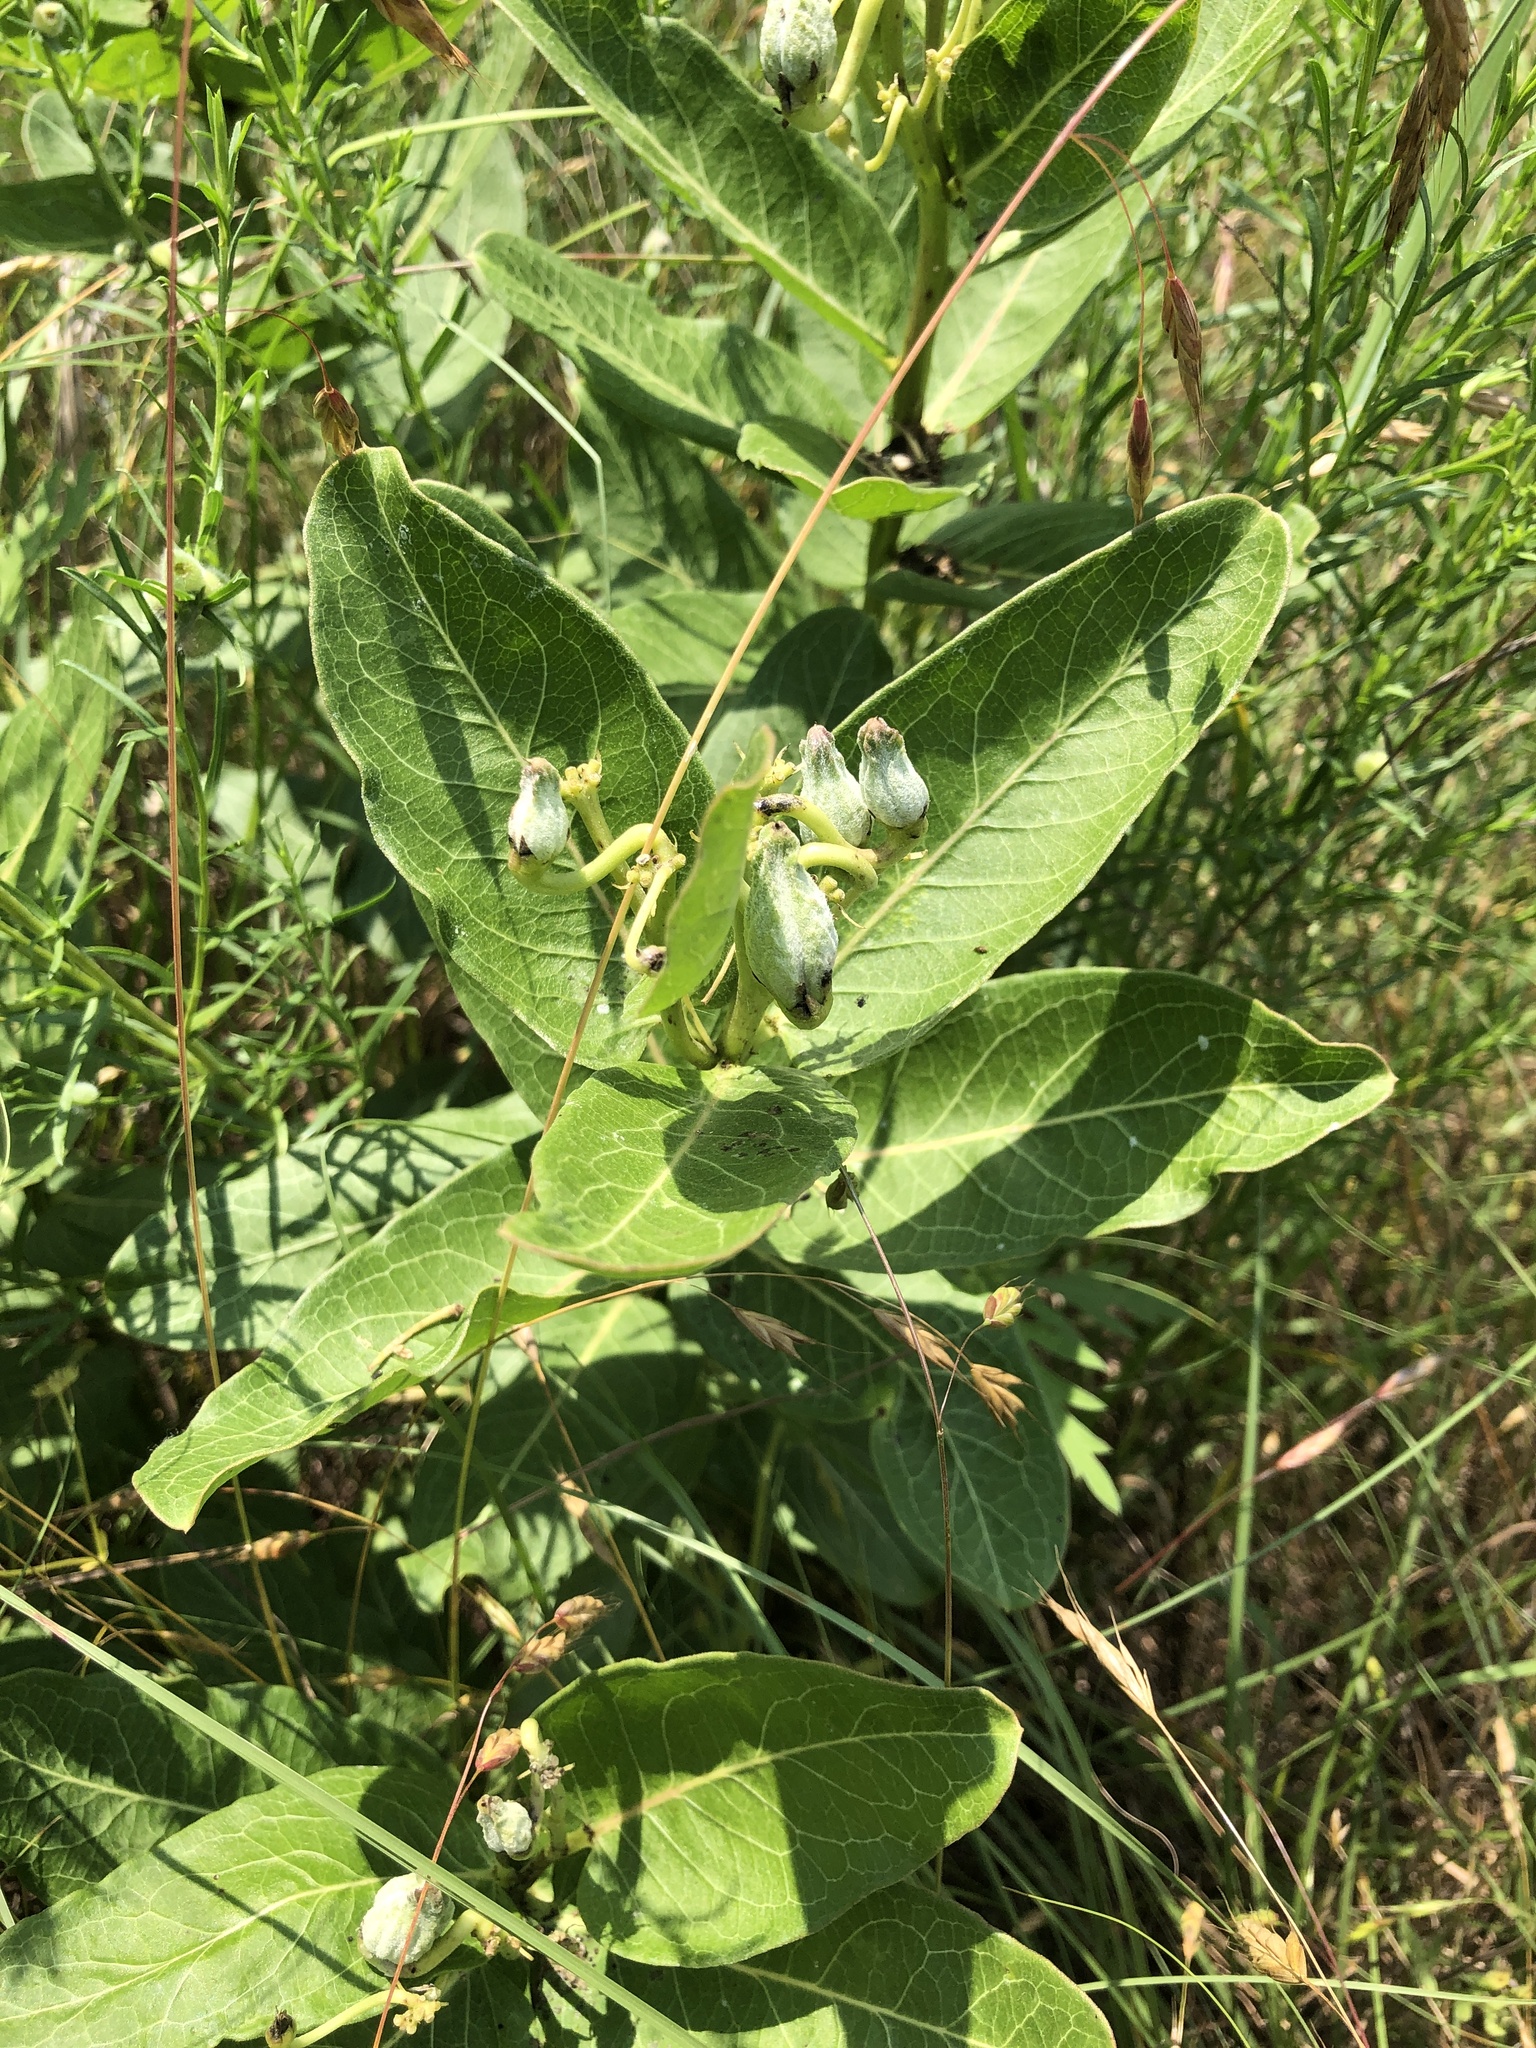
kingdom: Plantae
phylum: Tracheophyta
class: Magnoliopsida
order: Gentianales
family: Apocynaceae
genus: Asclepias
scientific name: Asclepias viridis
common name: Antelope-horns
